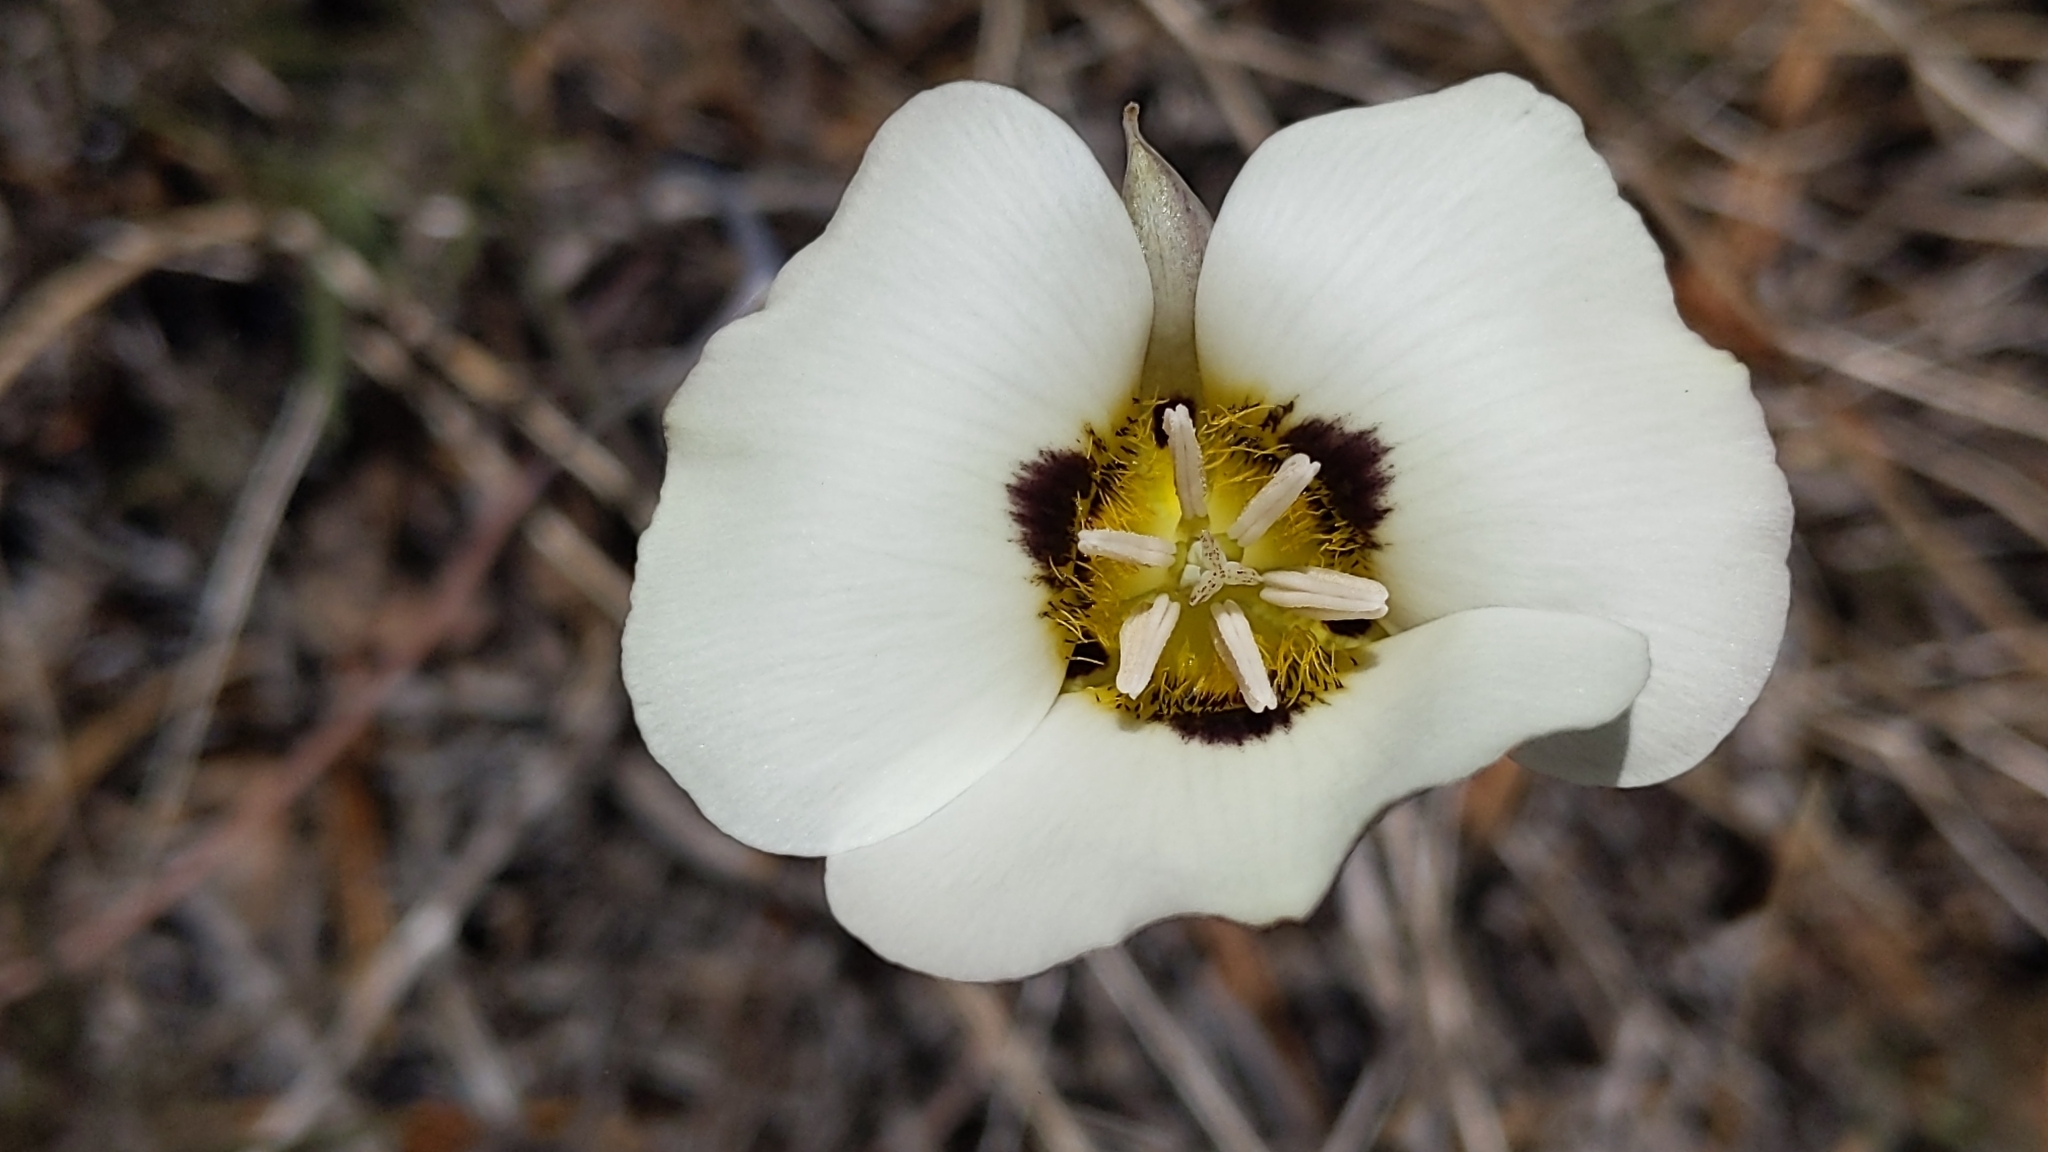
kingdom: Plantae
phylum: Tracheophyta
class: Liliopsida
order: Liliales
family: Liliaceae
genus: Calochortus
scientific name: Calochortus leichtlinii
